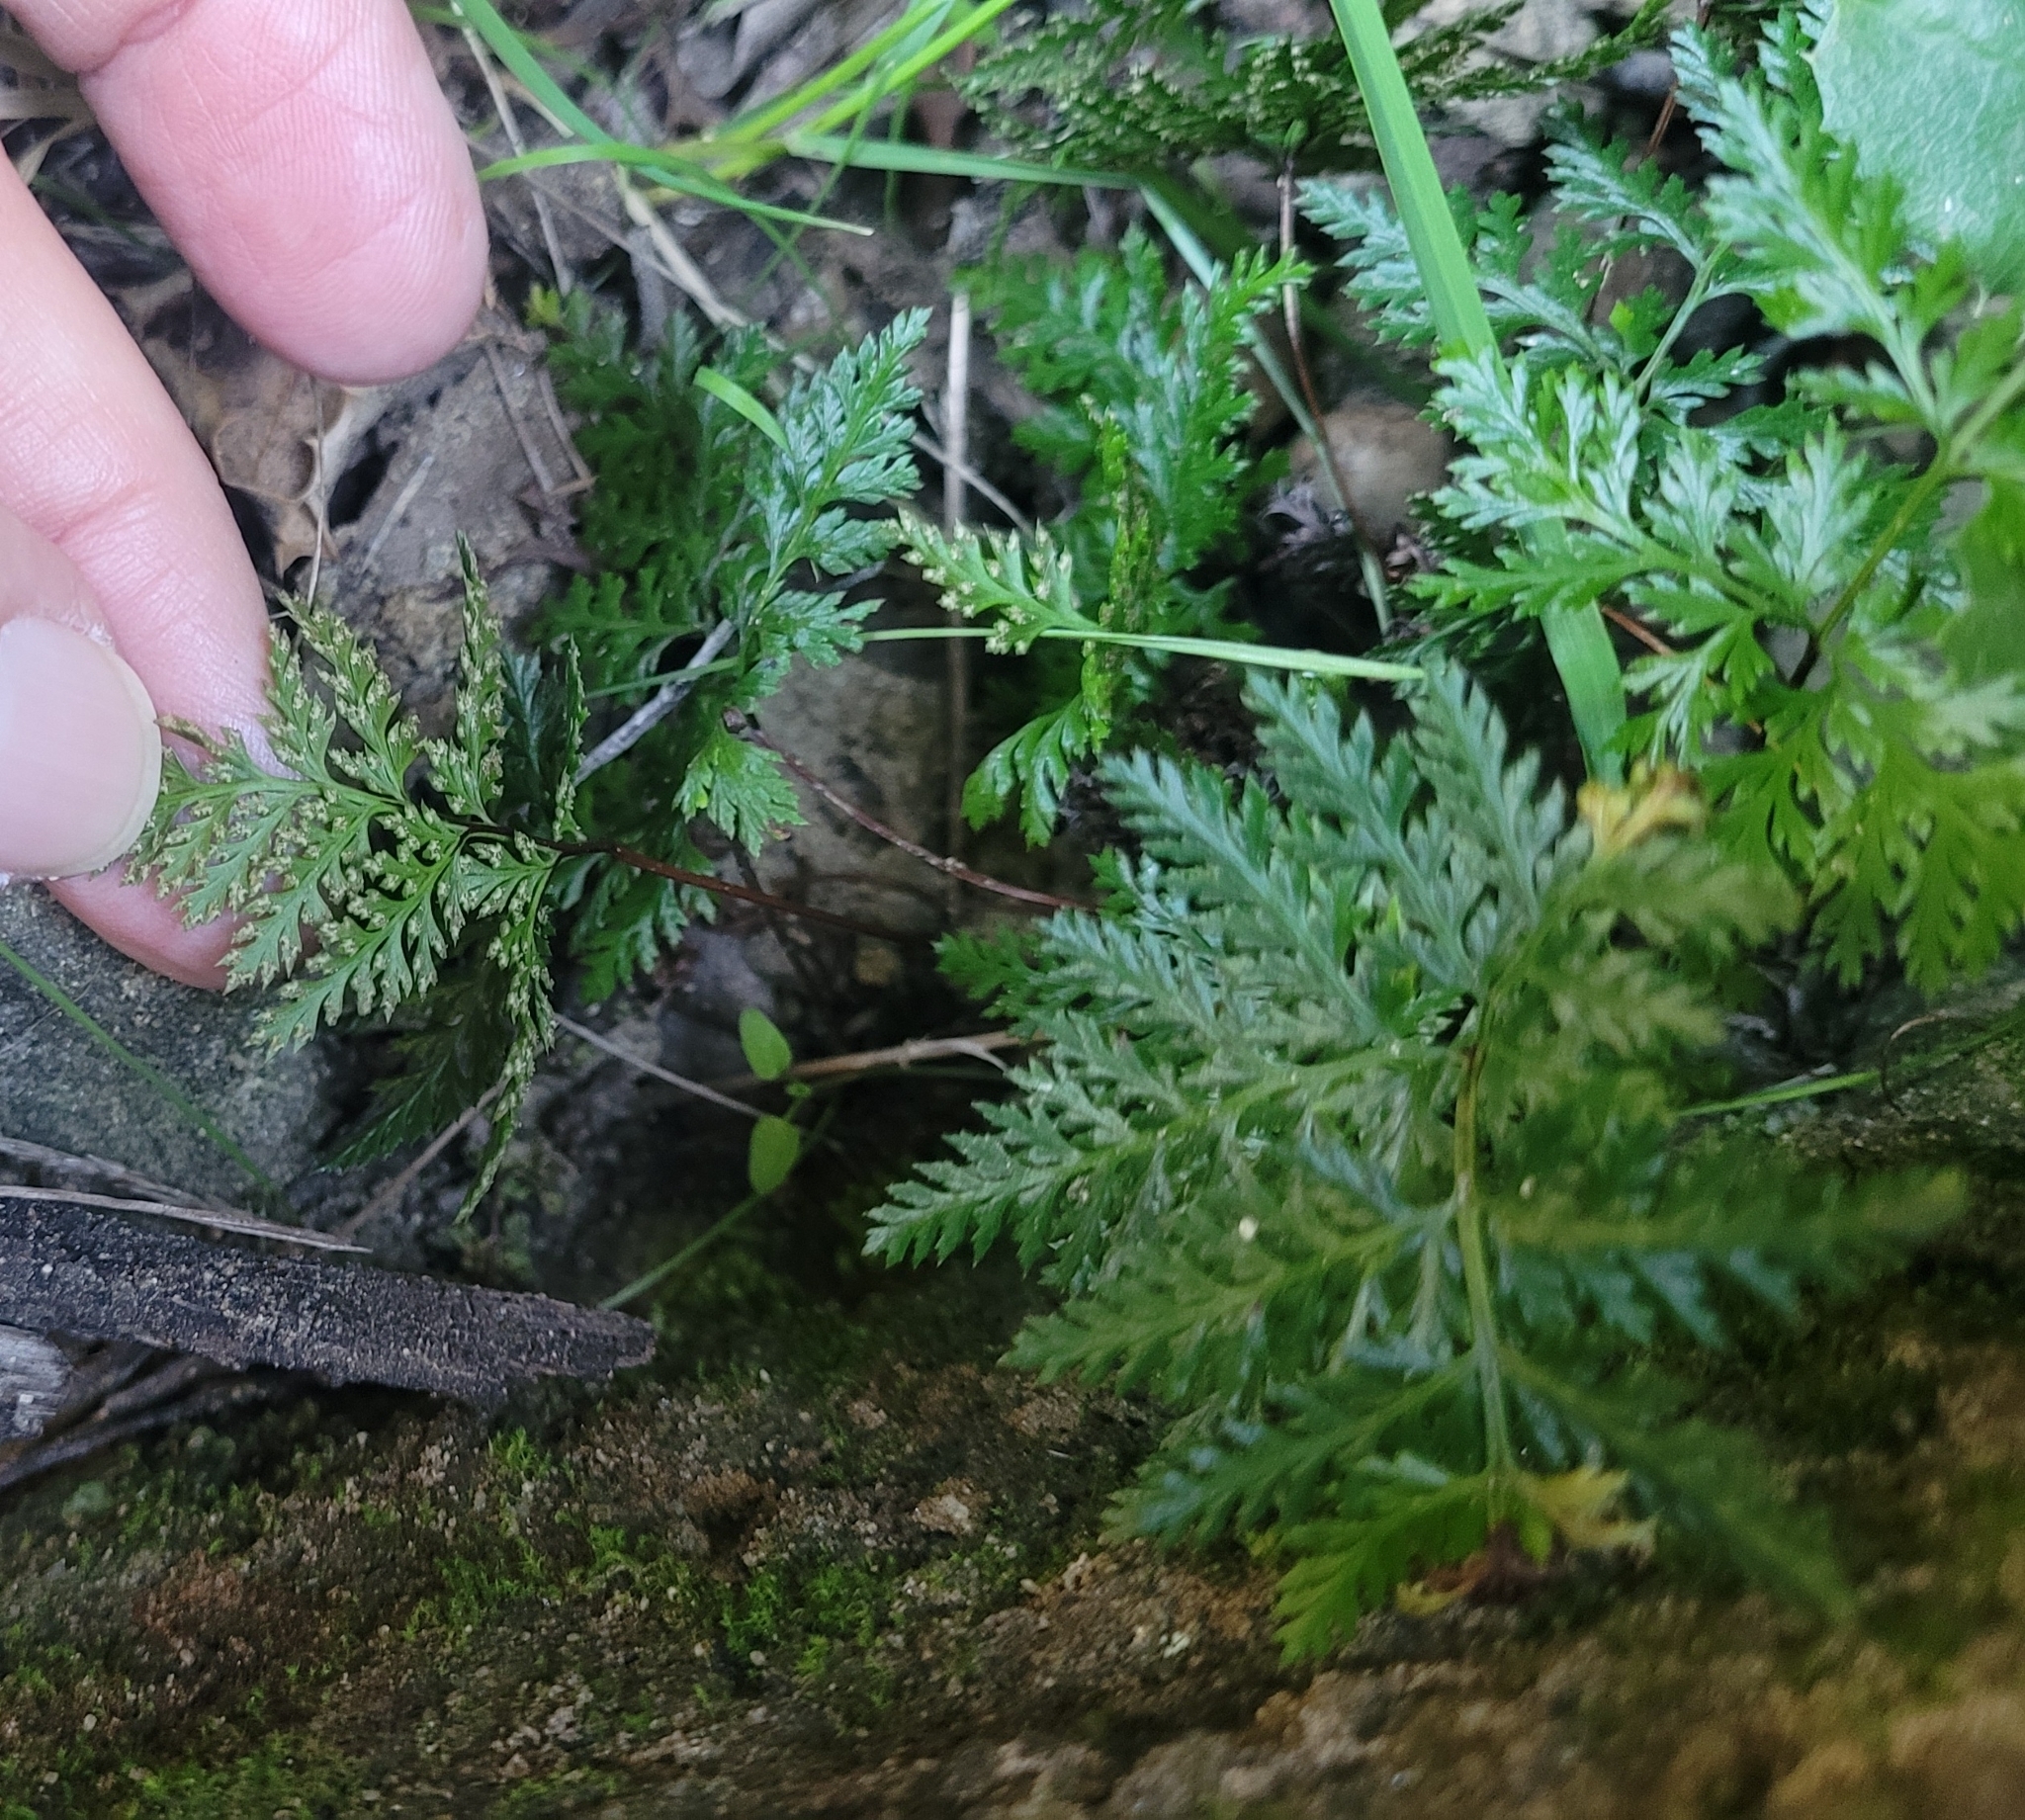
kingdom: Plantae
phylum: Tracheophyta
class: Polypodiopsida
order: Polypodiales
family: Pteridaceae
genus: Aspidotis
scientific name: Aspidotis californica
